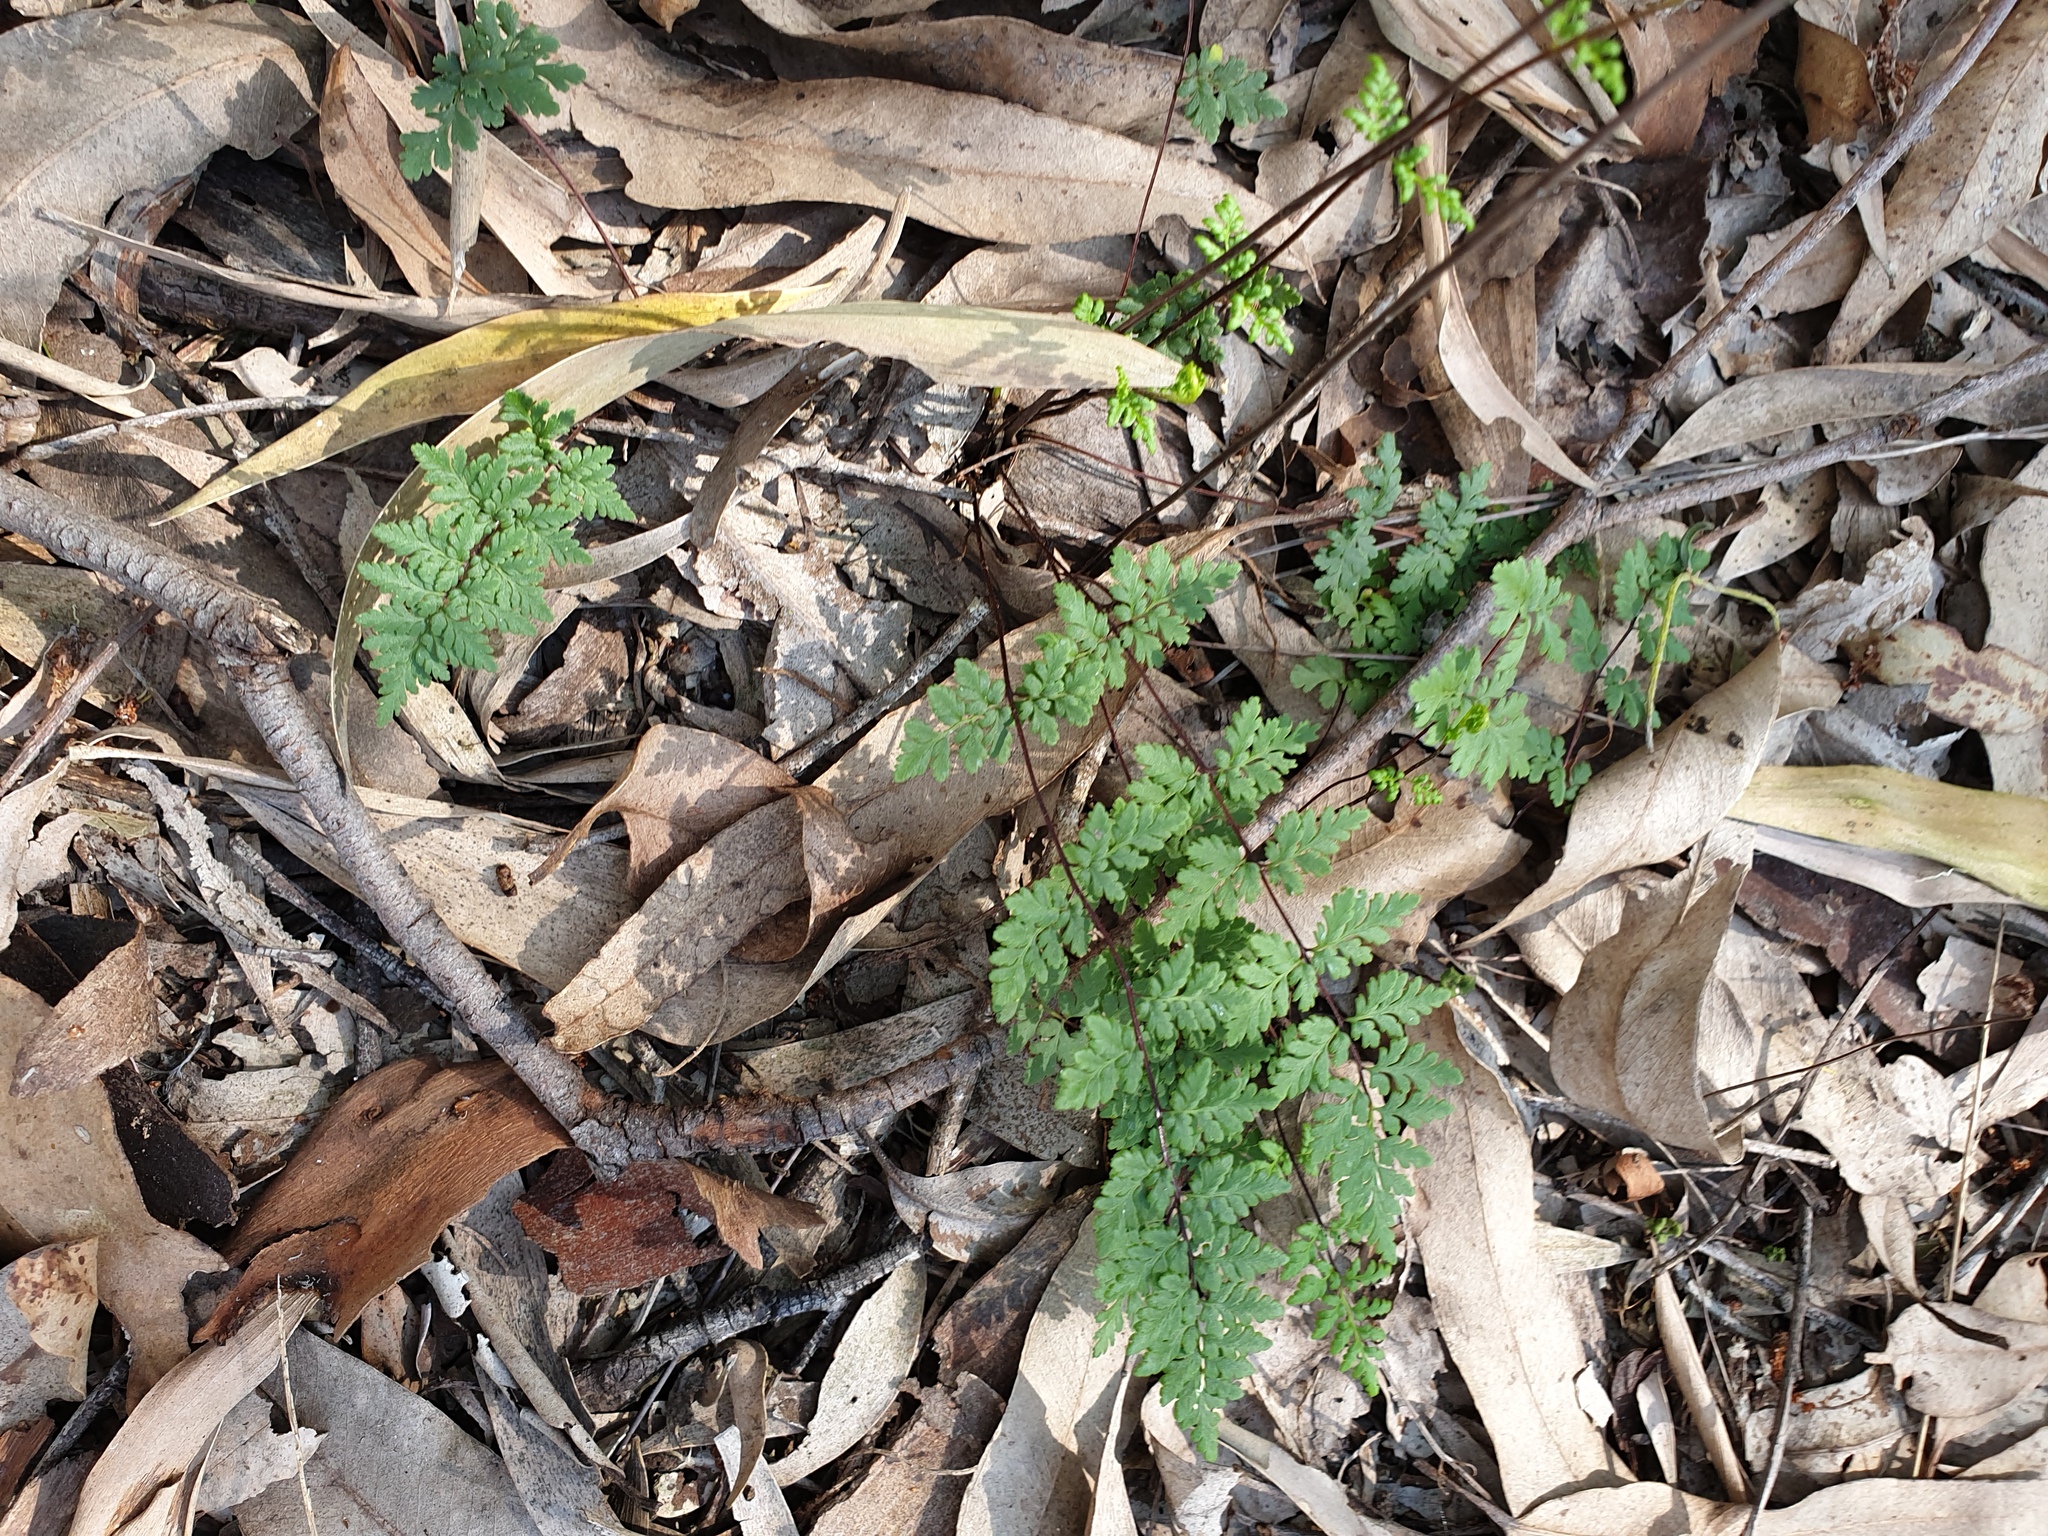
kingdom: Plantae
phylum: Tracheophyta
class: Polypodiopsida
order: Polypodiales
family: Pteridaceae
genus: Cheilanthes
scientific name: Cheilanthes sieberi
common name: Mulga fern
